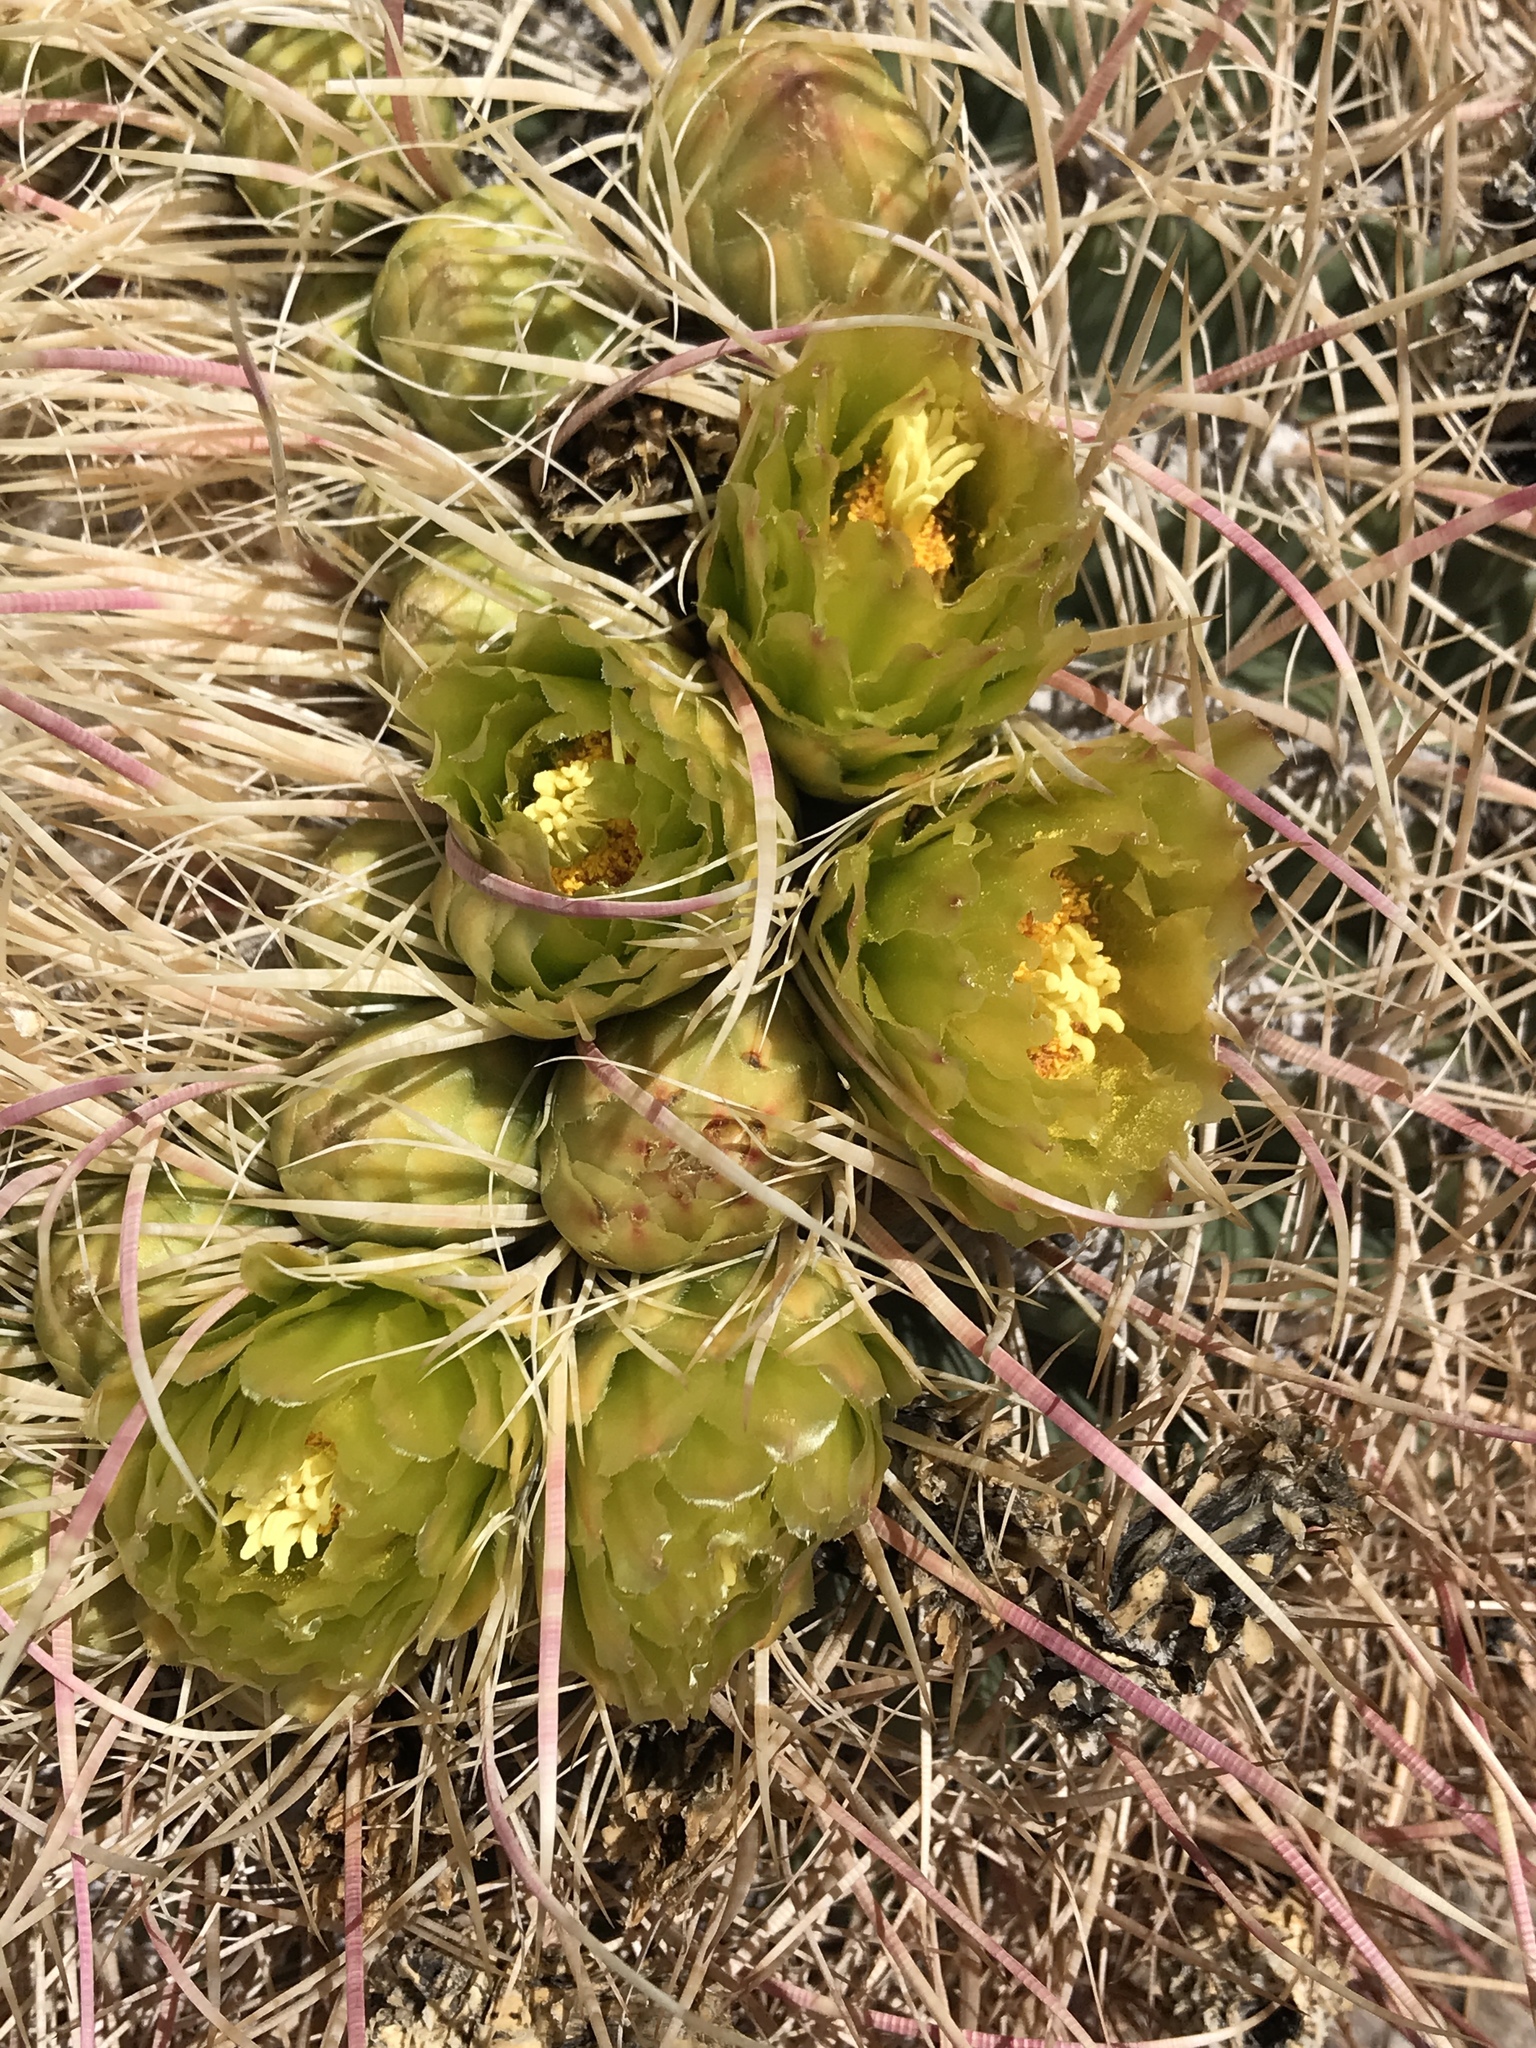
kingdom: Plantae
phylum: Tracheophyta
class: Magnoliopsida
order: Caryophyllales
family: Cactaceae
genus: Ferocactus
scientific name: Ferocactus cylindraceus
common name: California barrel cactus
